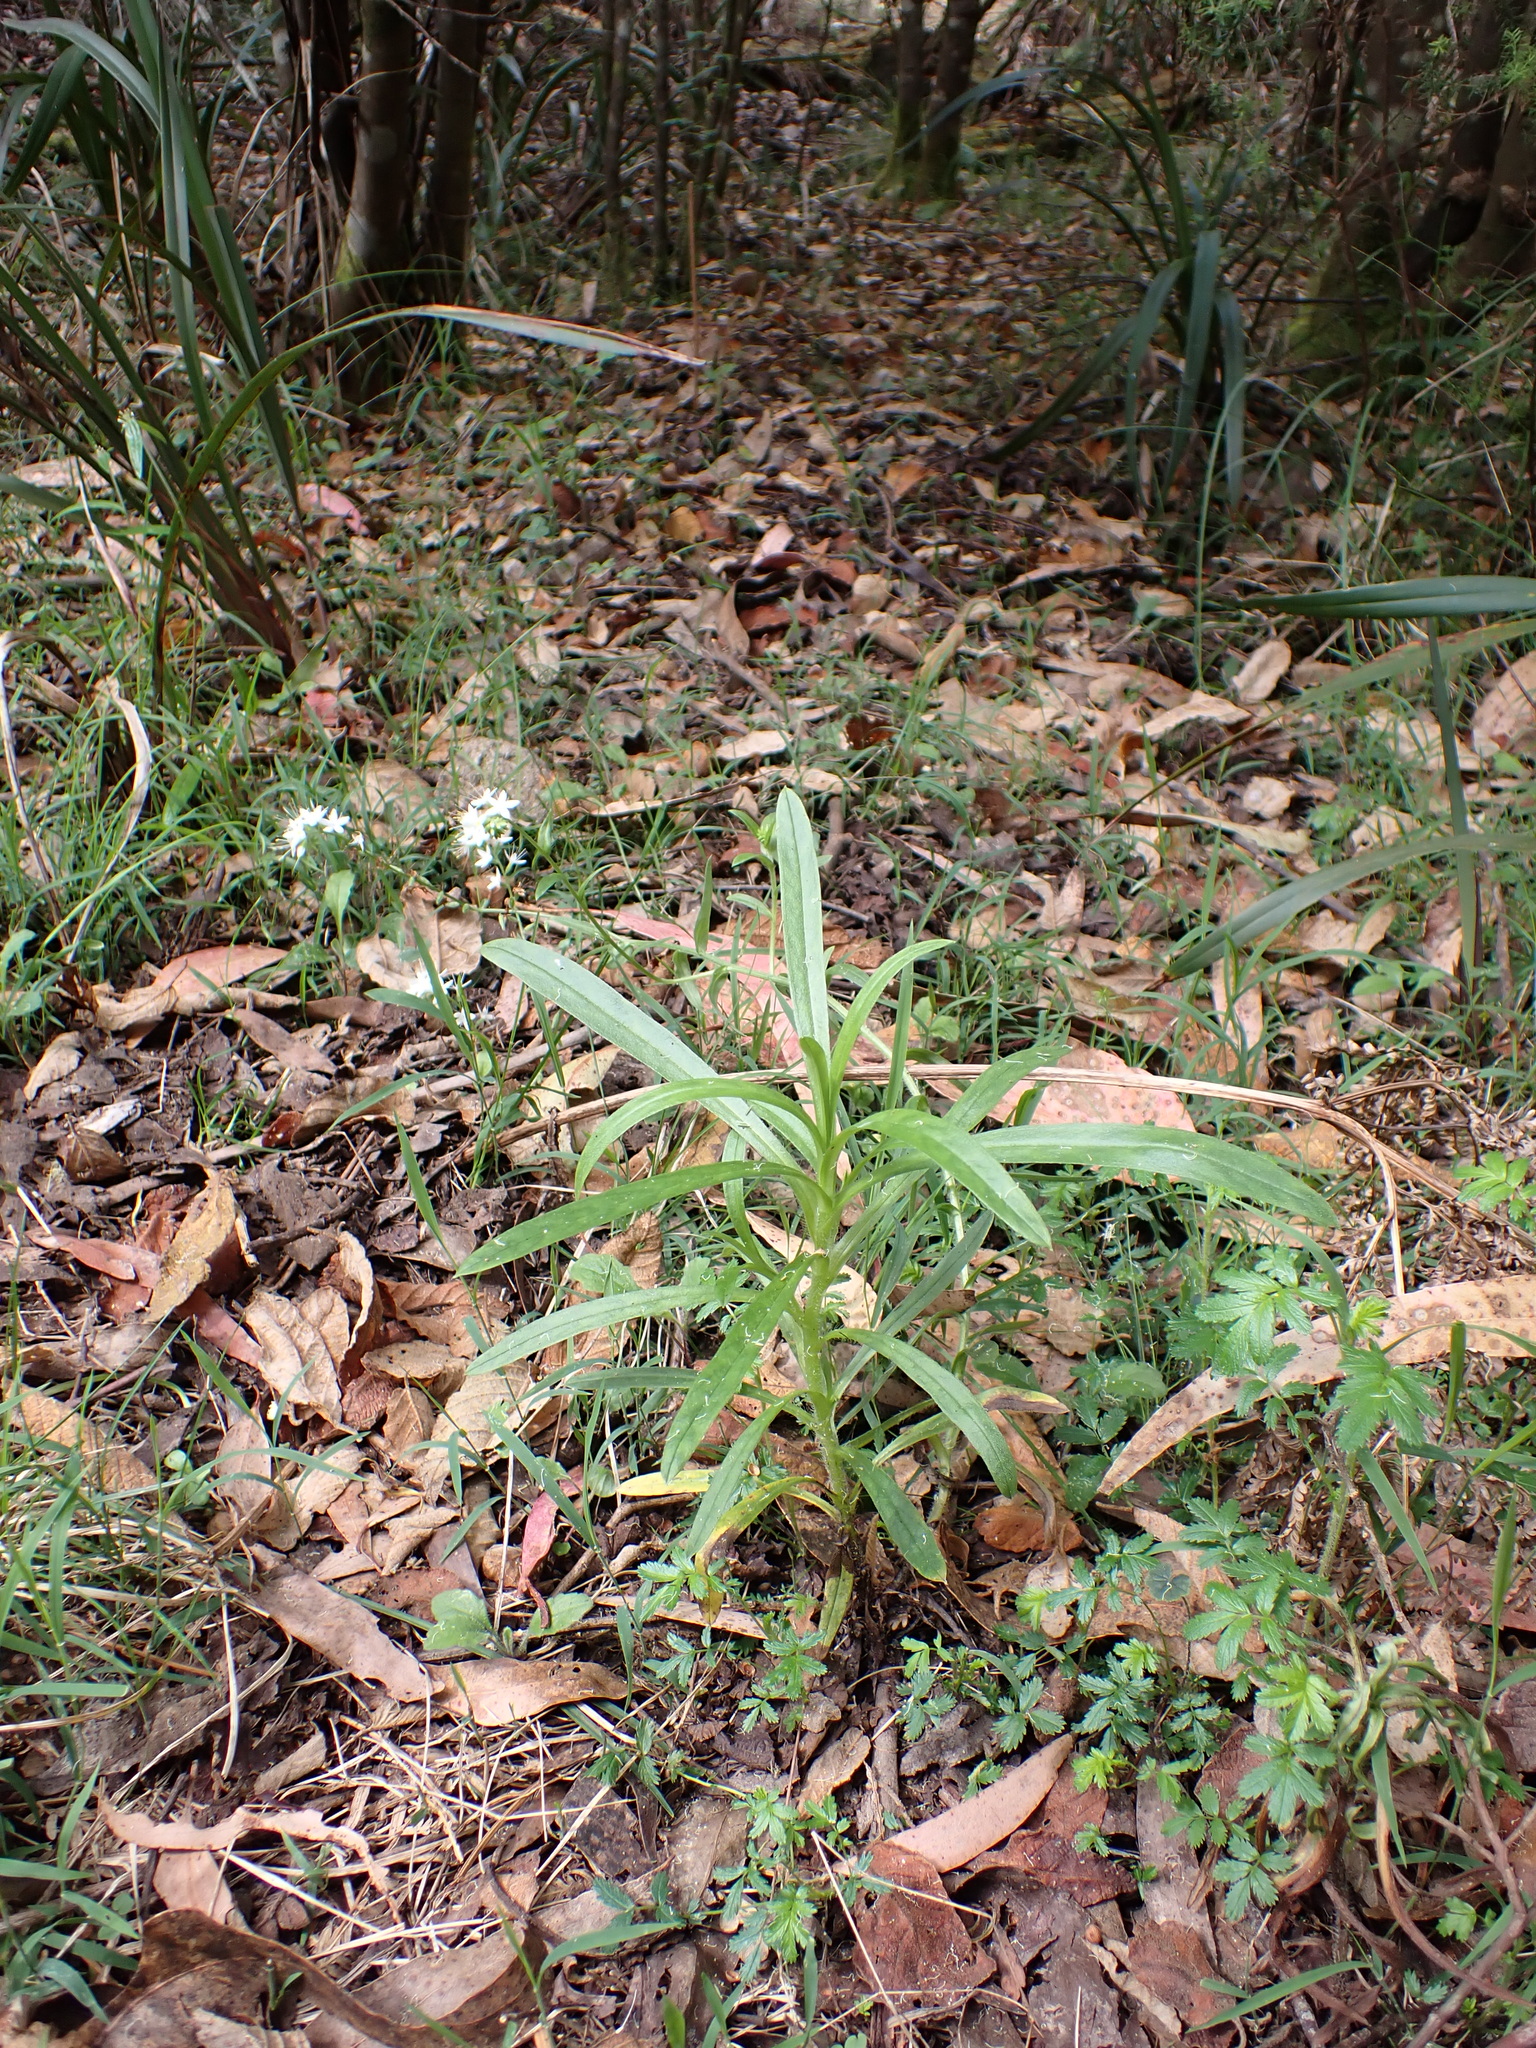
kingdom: Plantae
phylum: Tracheophyta
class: Magnoliopsida
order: Boraginales
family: Boraginaceae
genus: Myosotis
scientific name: Myosotis exarrhena
